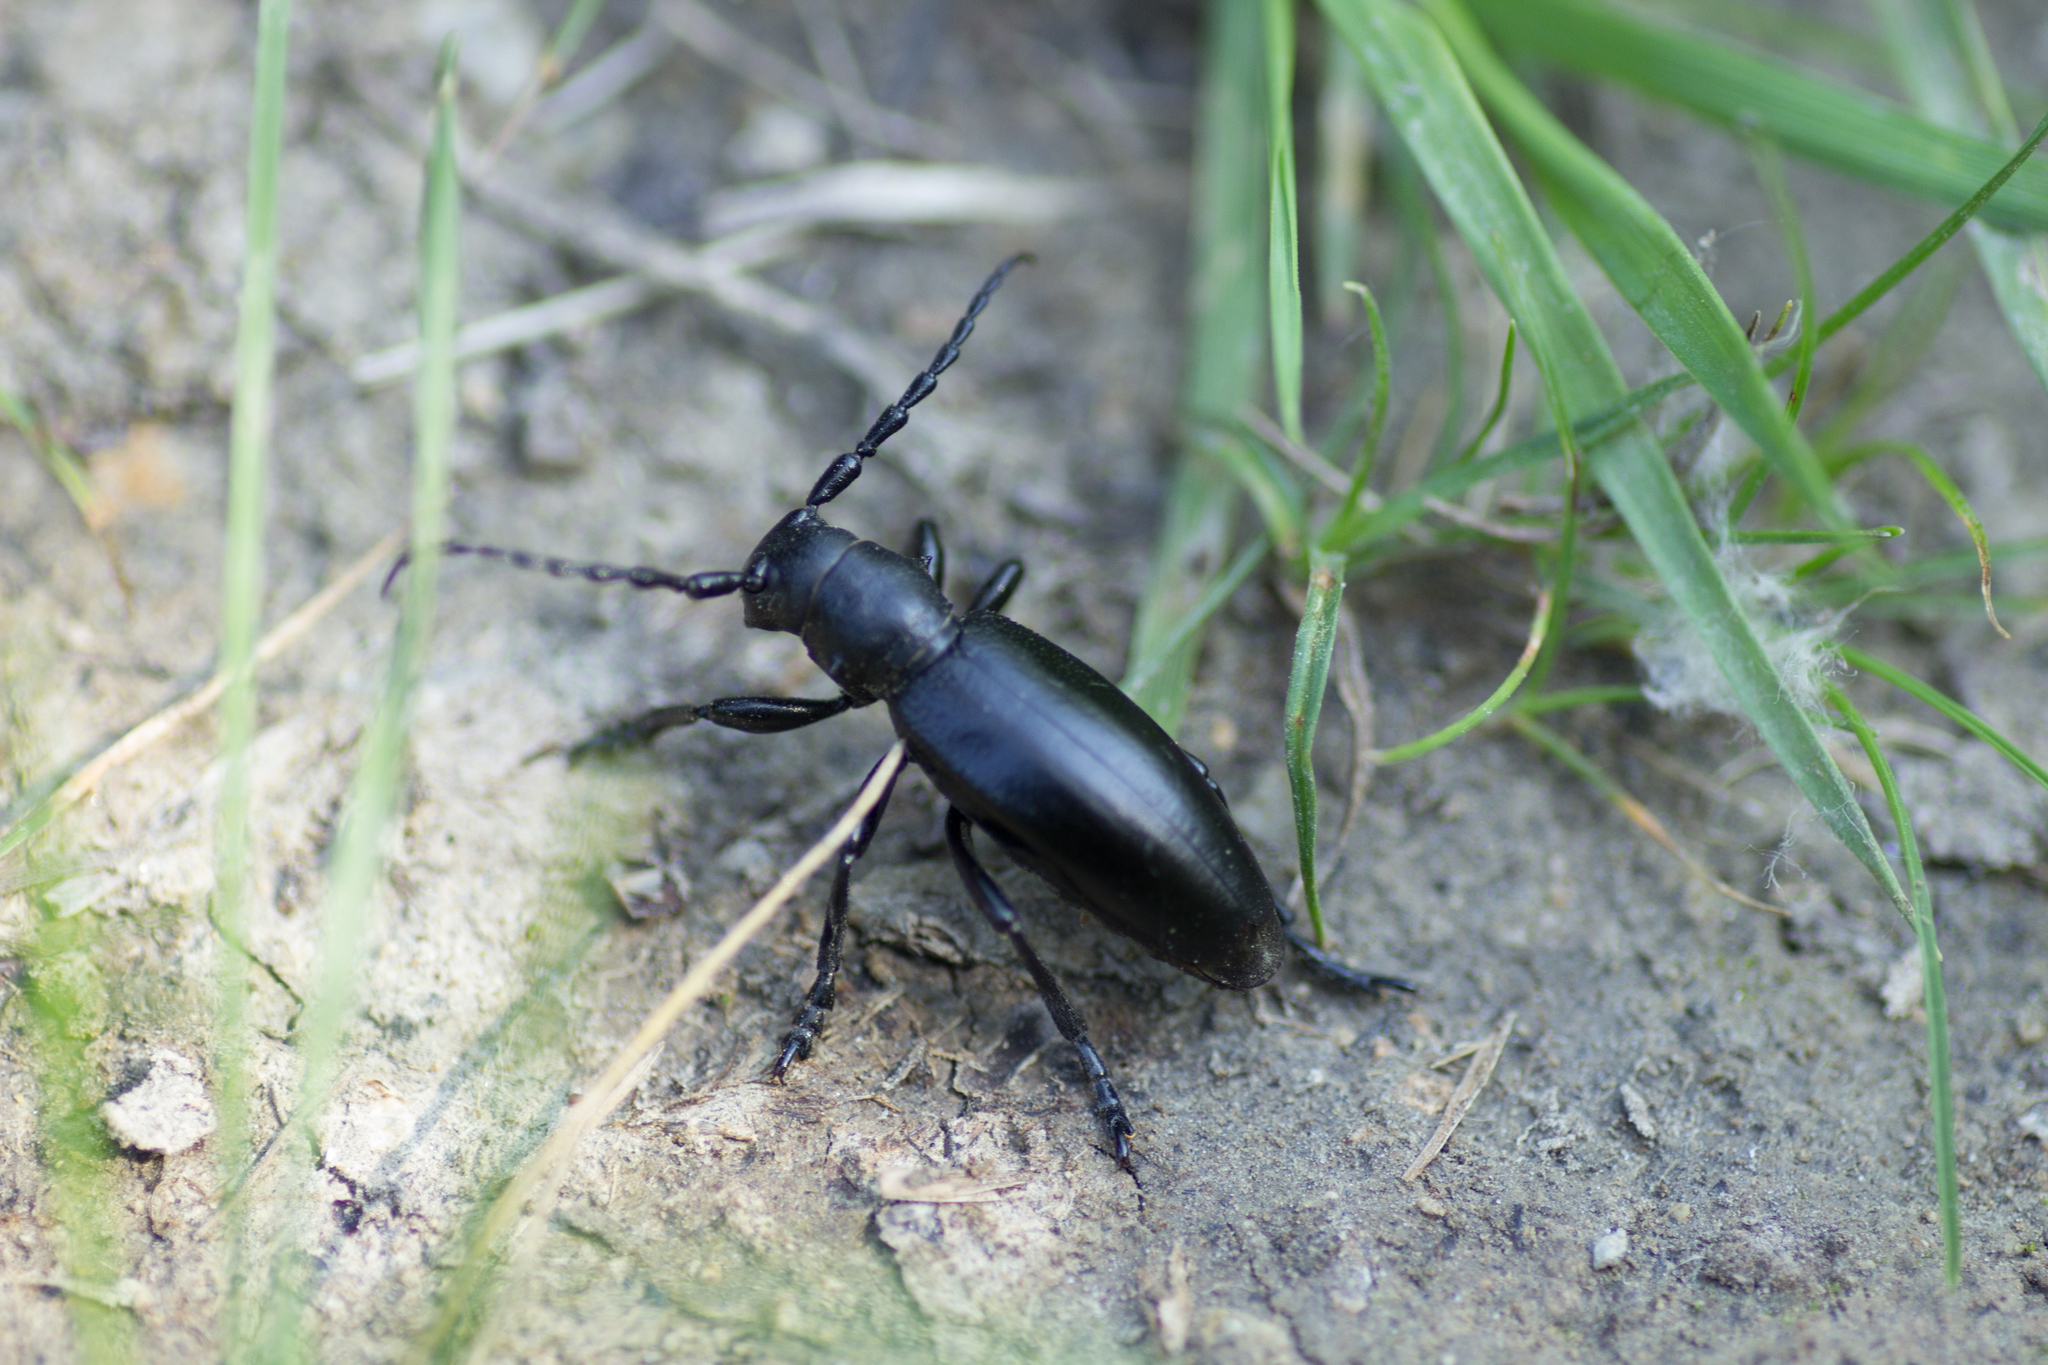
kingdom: Animalia
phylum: Arthropoda
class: Insecta
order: Coleoptera
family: Cerambycidae
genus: Dorcadion
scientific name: Dorcadion aethiops
